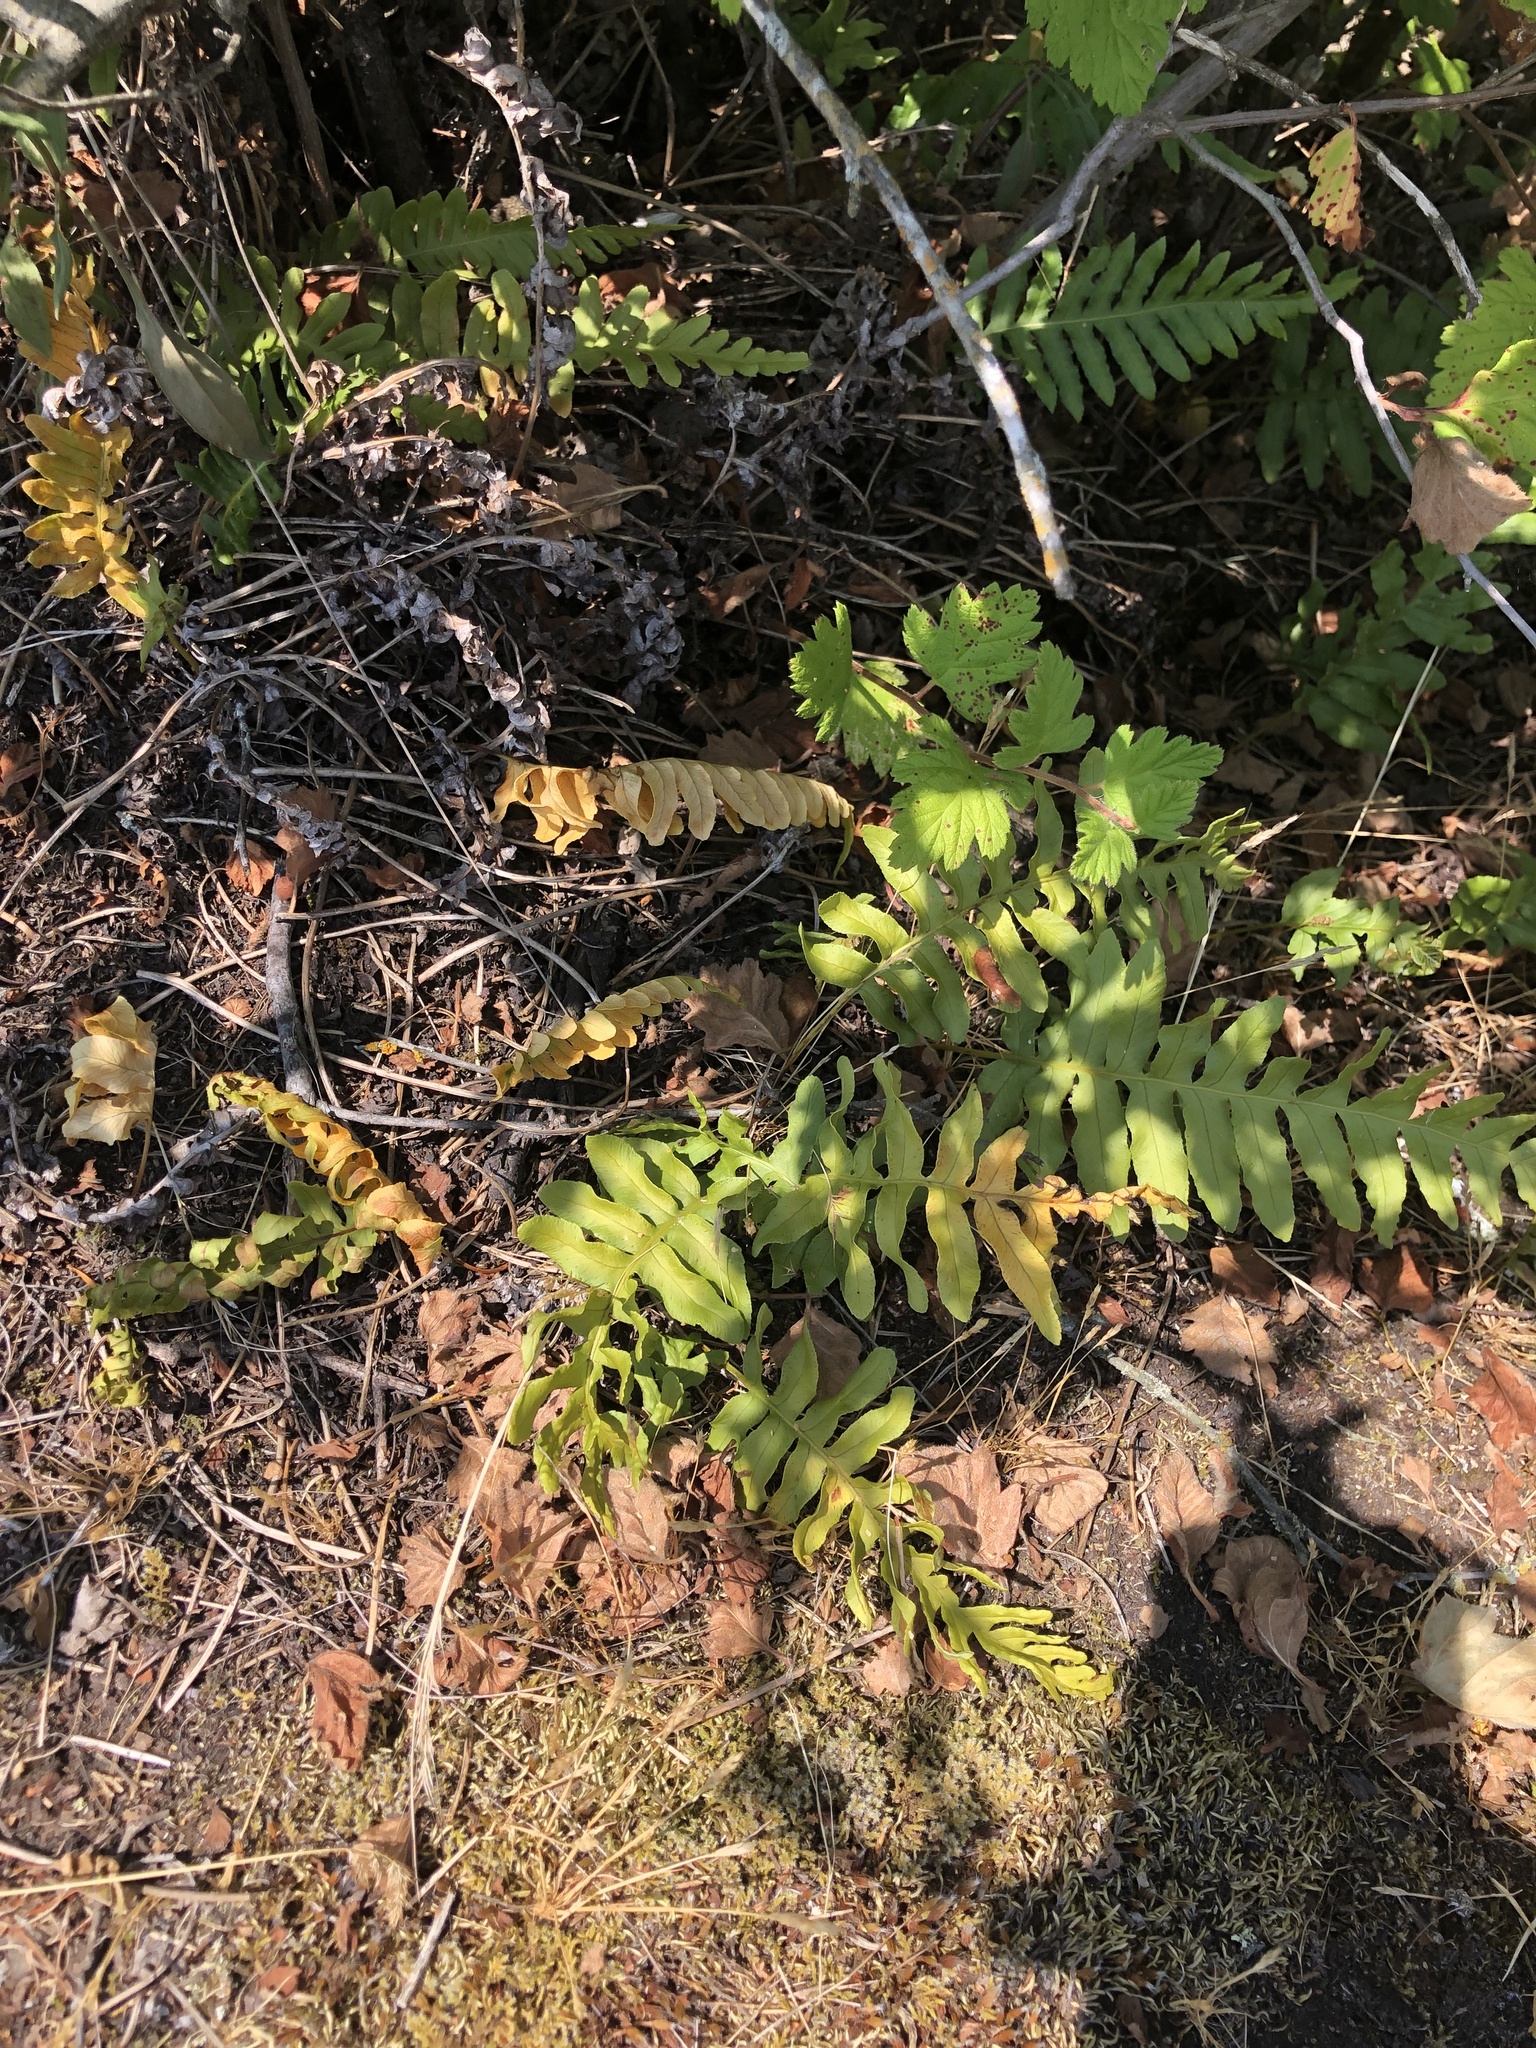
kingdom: Plantae
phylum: Tracheophyta
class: Polypodiopsida
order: Polypodiales
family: Polypodiaceae
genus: Polypodium
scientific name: Polypodium glycyrrhiza
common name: Licorice fern
